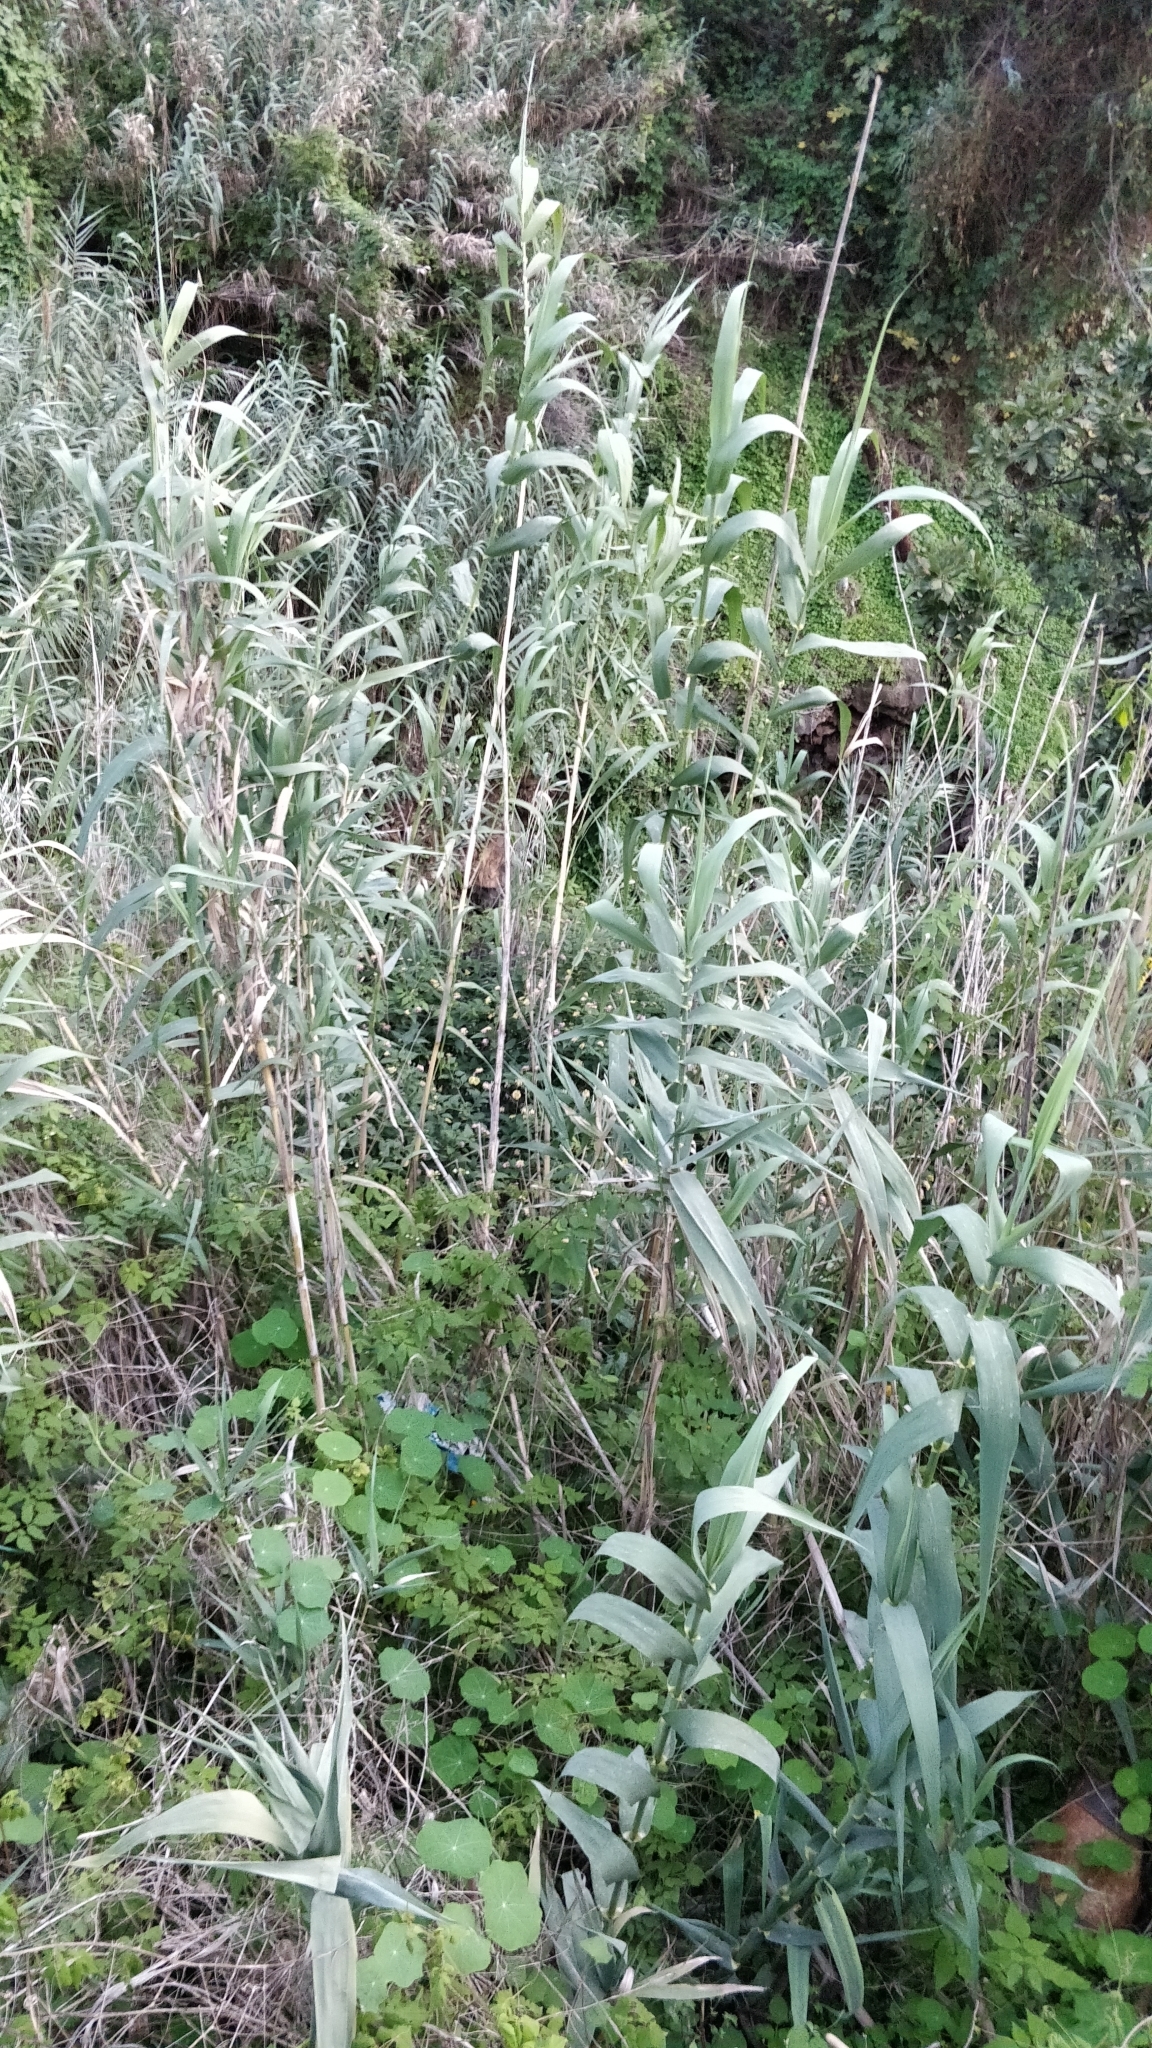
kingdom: Plantae
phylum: Tracheophyta
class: Liliopsida
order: Poales
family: Poaceae
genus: Arundo
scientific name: Arundo donax
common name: Giant reed
